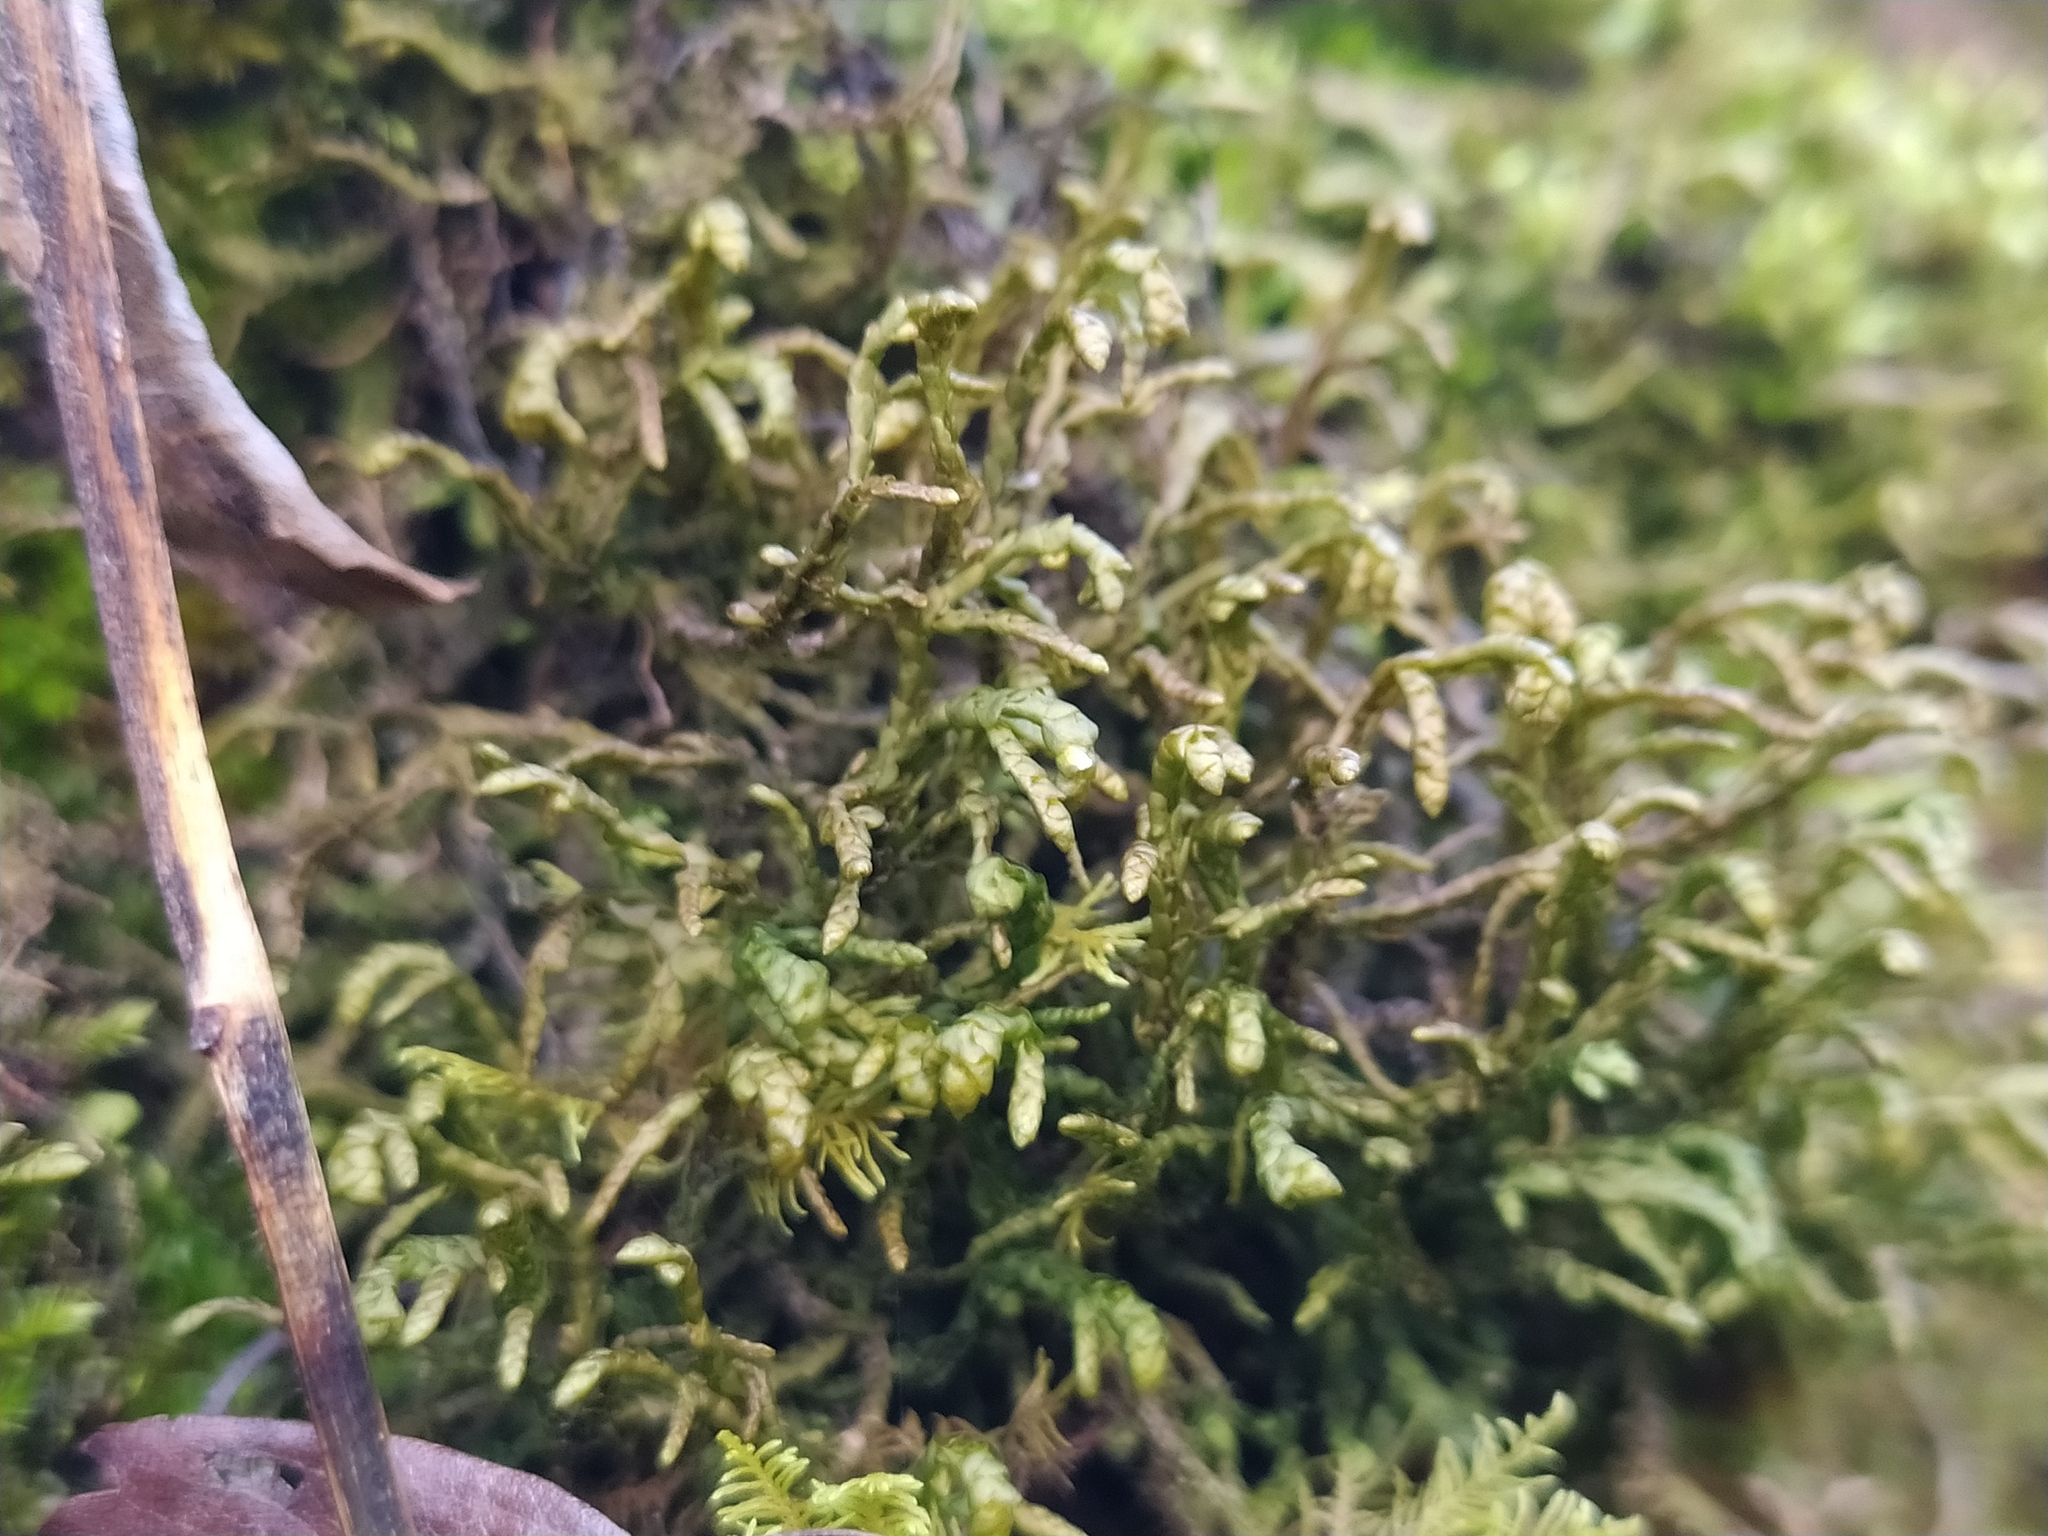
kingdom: Plantae
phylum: Marchantiophyta
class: Jungermanniopsida
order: Porellales
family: Porellaceae
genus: Porella
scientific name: Porella platyphylla
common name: Wall scalewort
